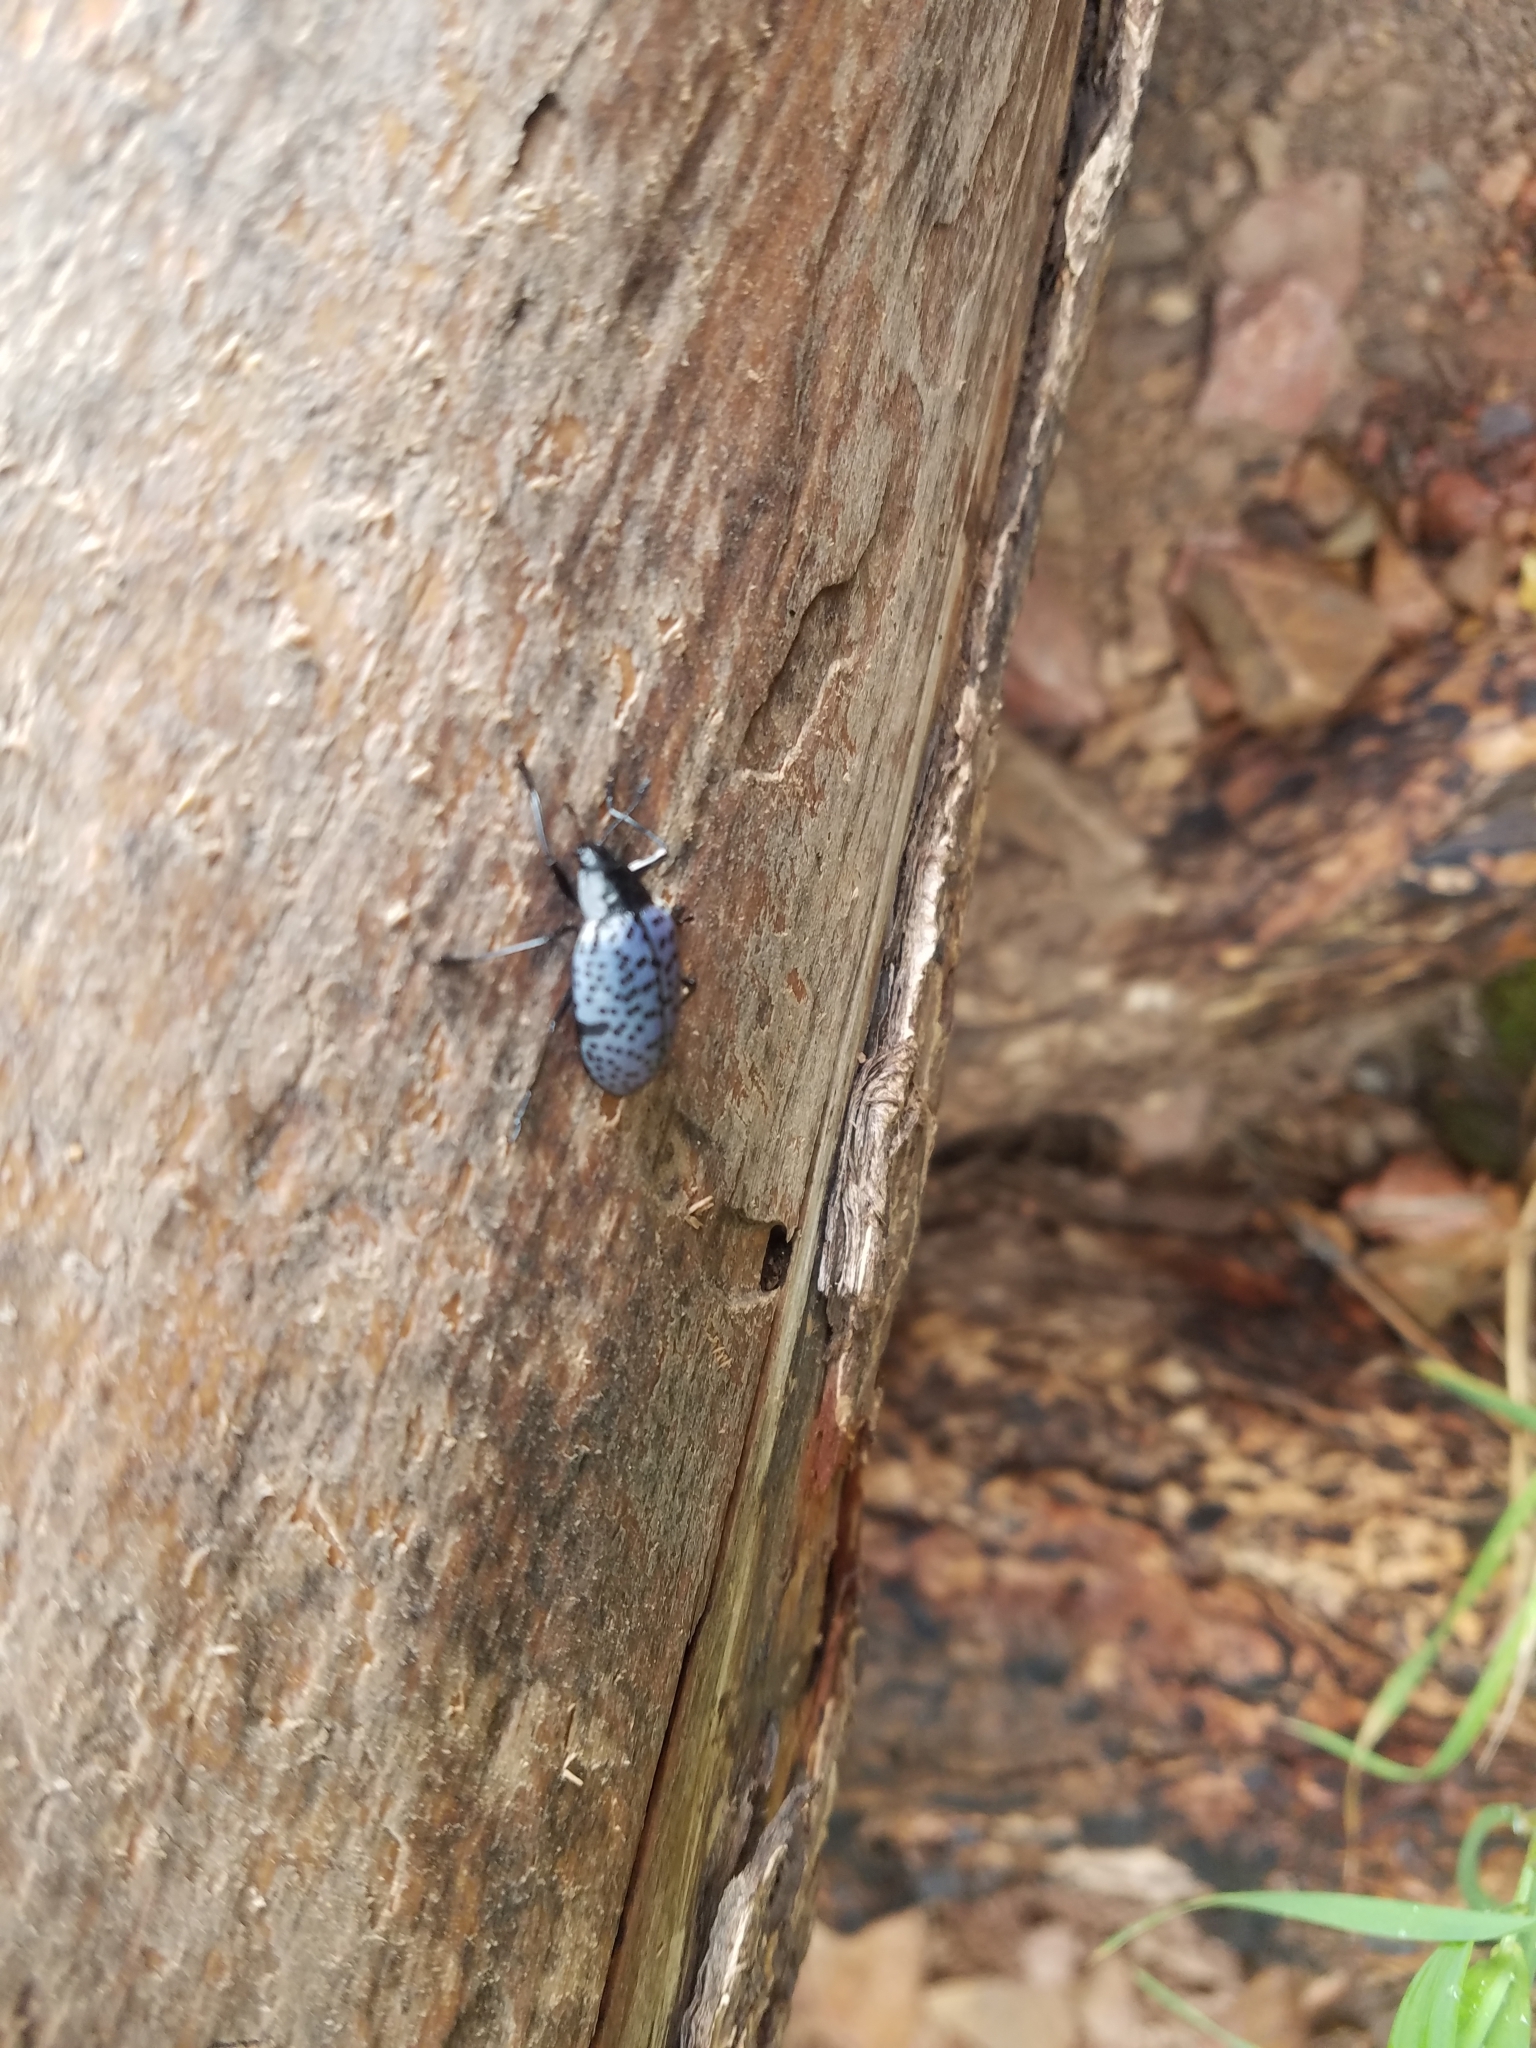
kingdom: Animalia
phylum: Arthropoda
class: Insecta
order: Coleoptera
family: Erotylidae
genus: Gibbifer
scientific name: Gibbifer californicus
